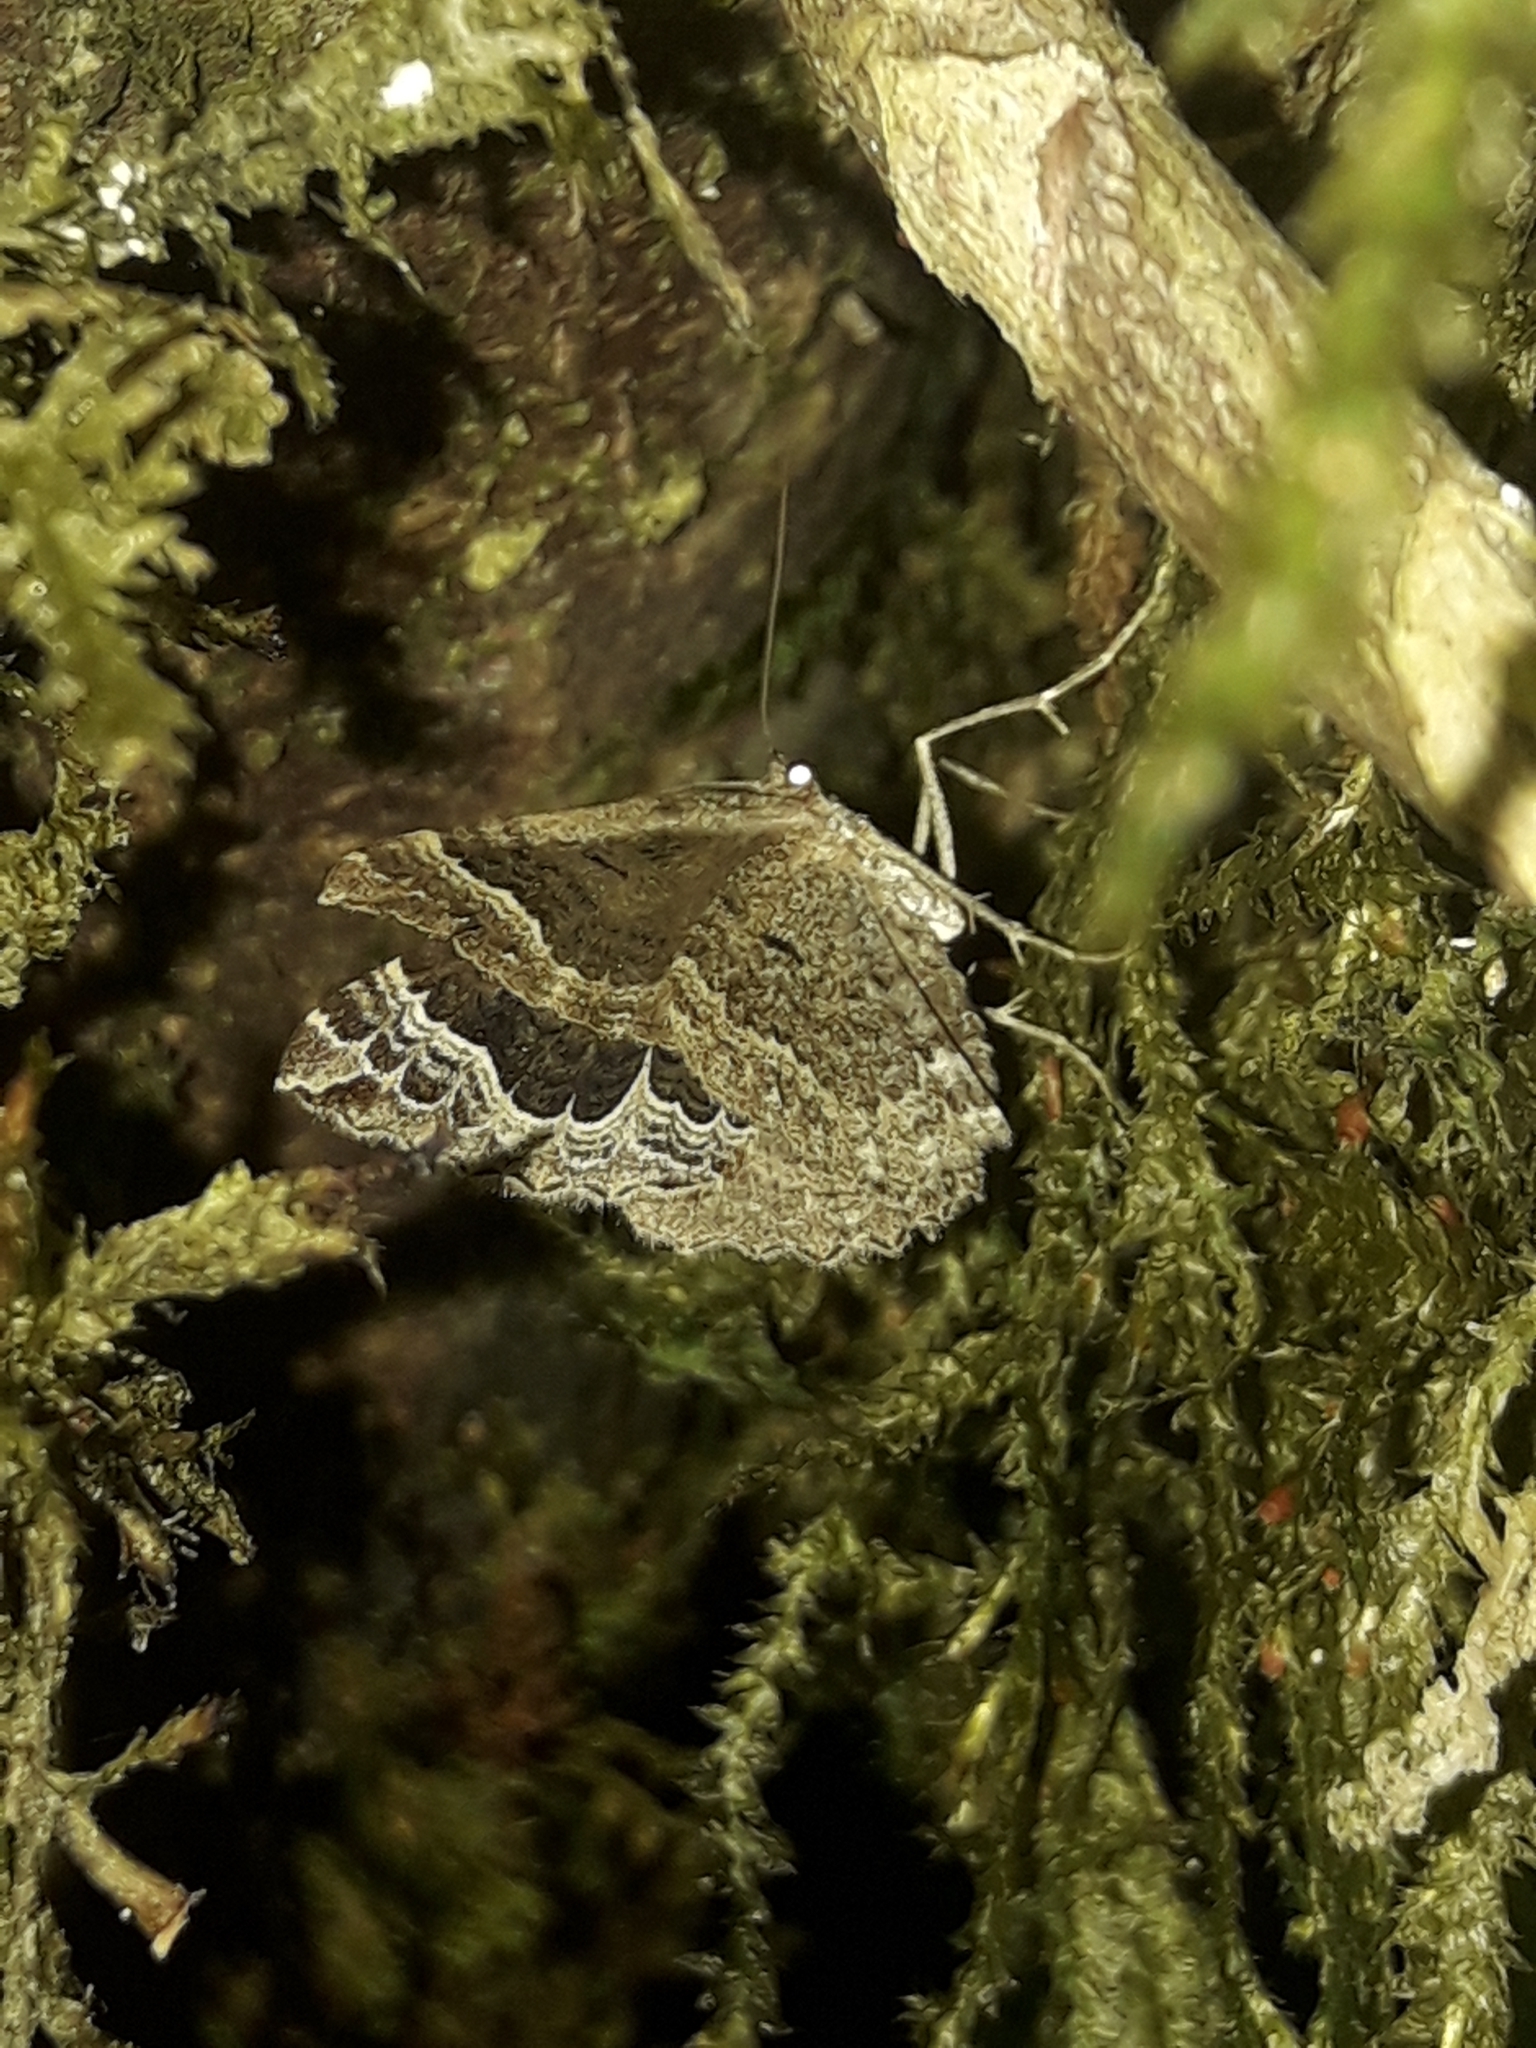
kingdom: Animalia
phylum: Arthropoda
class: Insecta
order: Lepidoptera
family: Geometridae
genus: Hydriomena
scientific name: Hydriomena rixata
